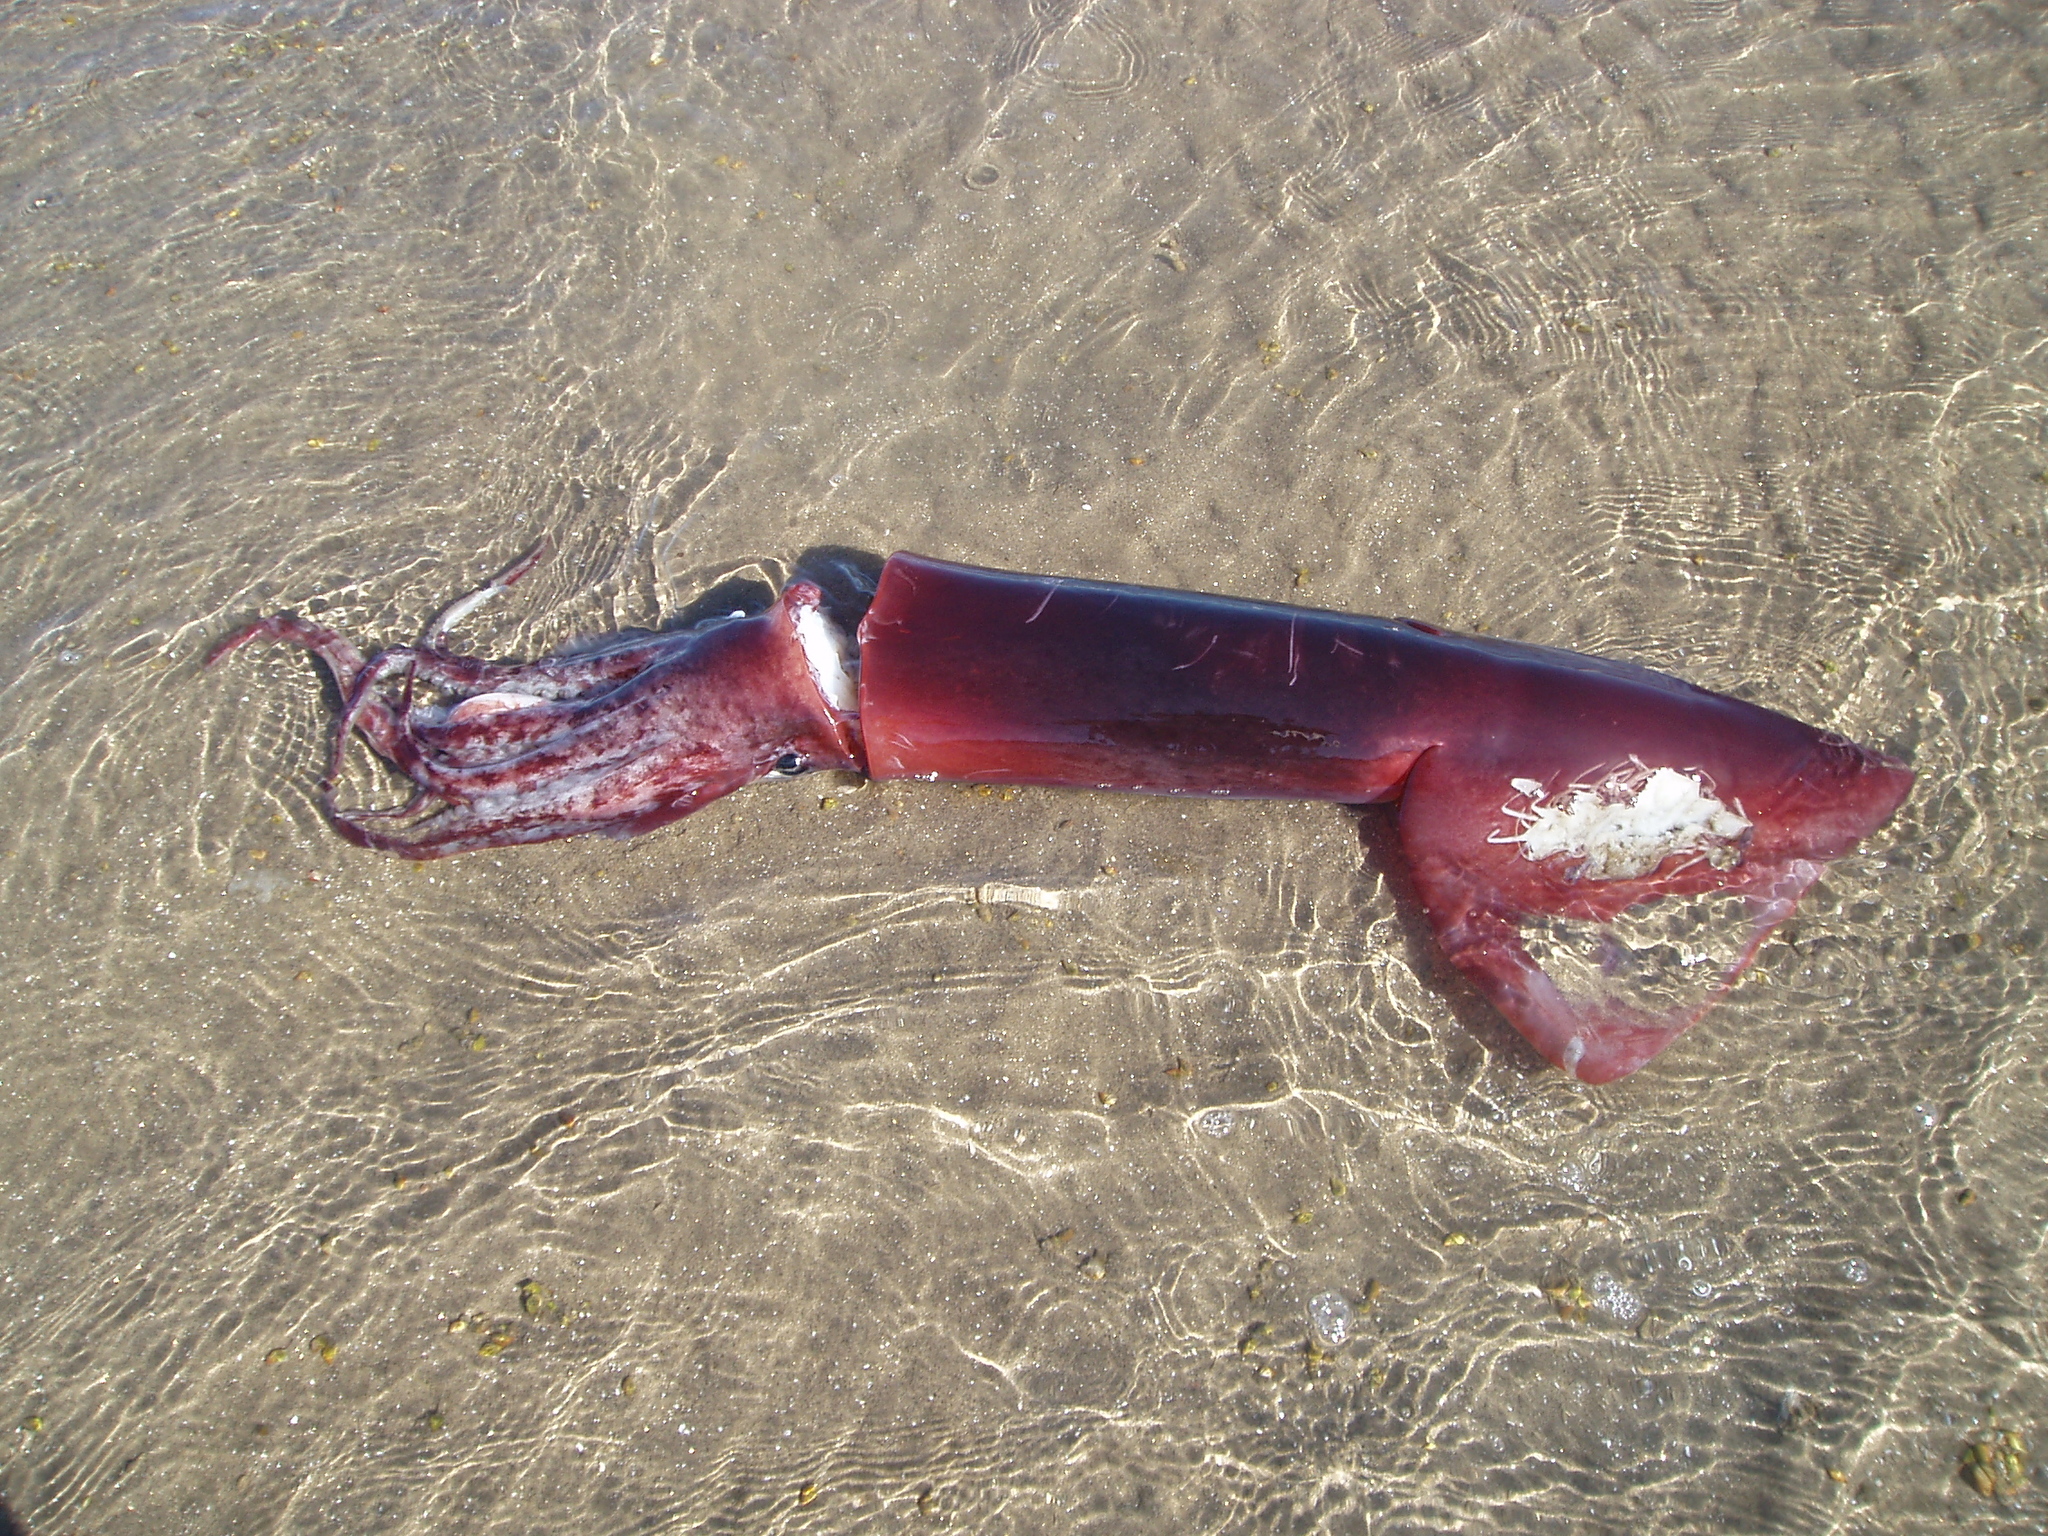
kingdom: Animalia
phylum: Mollusca
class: Cephalopoda
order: Oegopsida
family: Ommastrephidae
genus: Dosidicus
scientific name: Dosidicus gigas
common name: Humboldt squid
